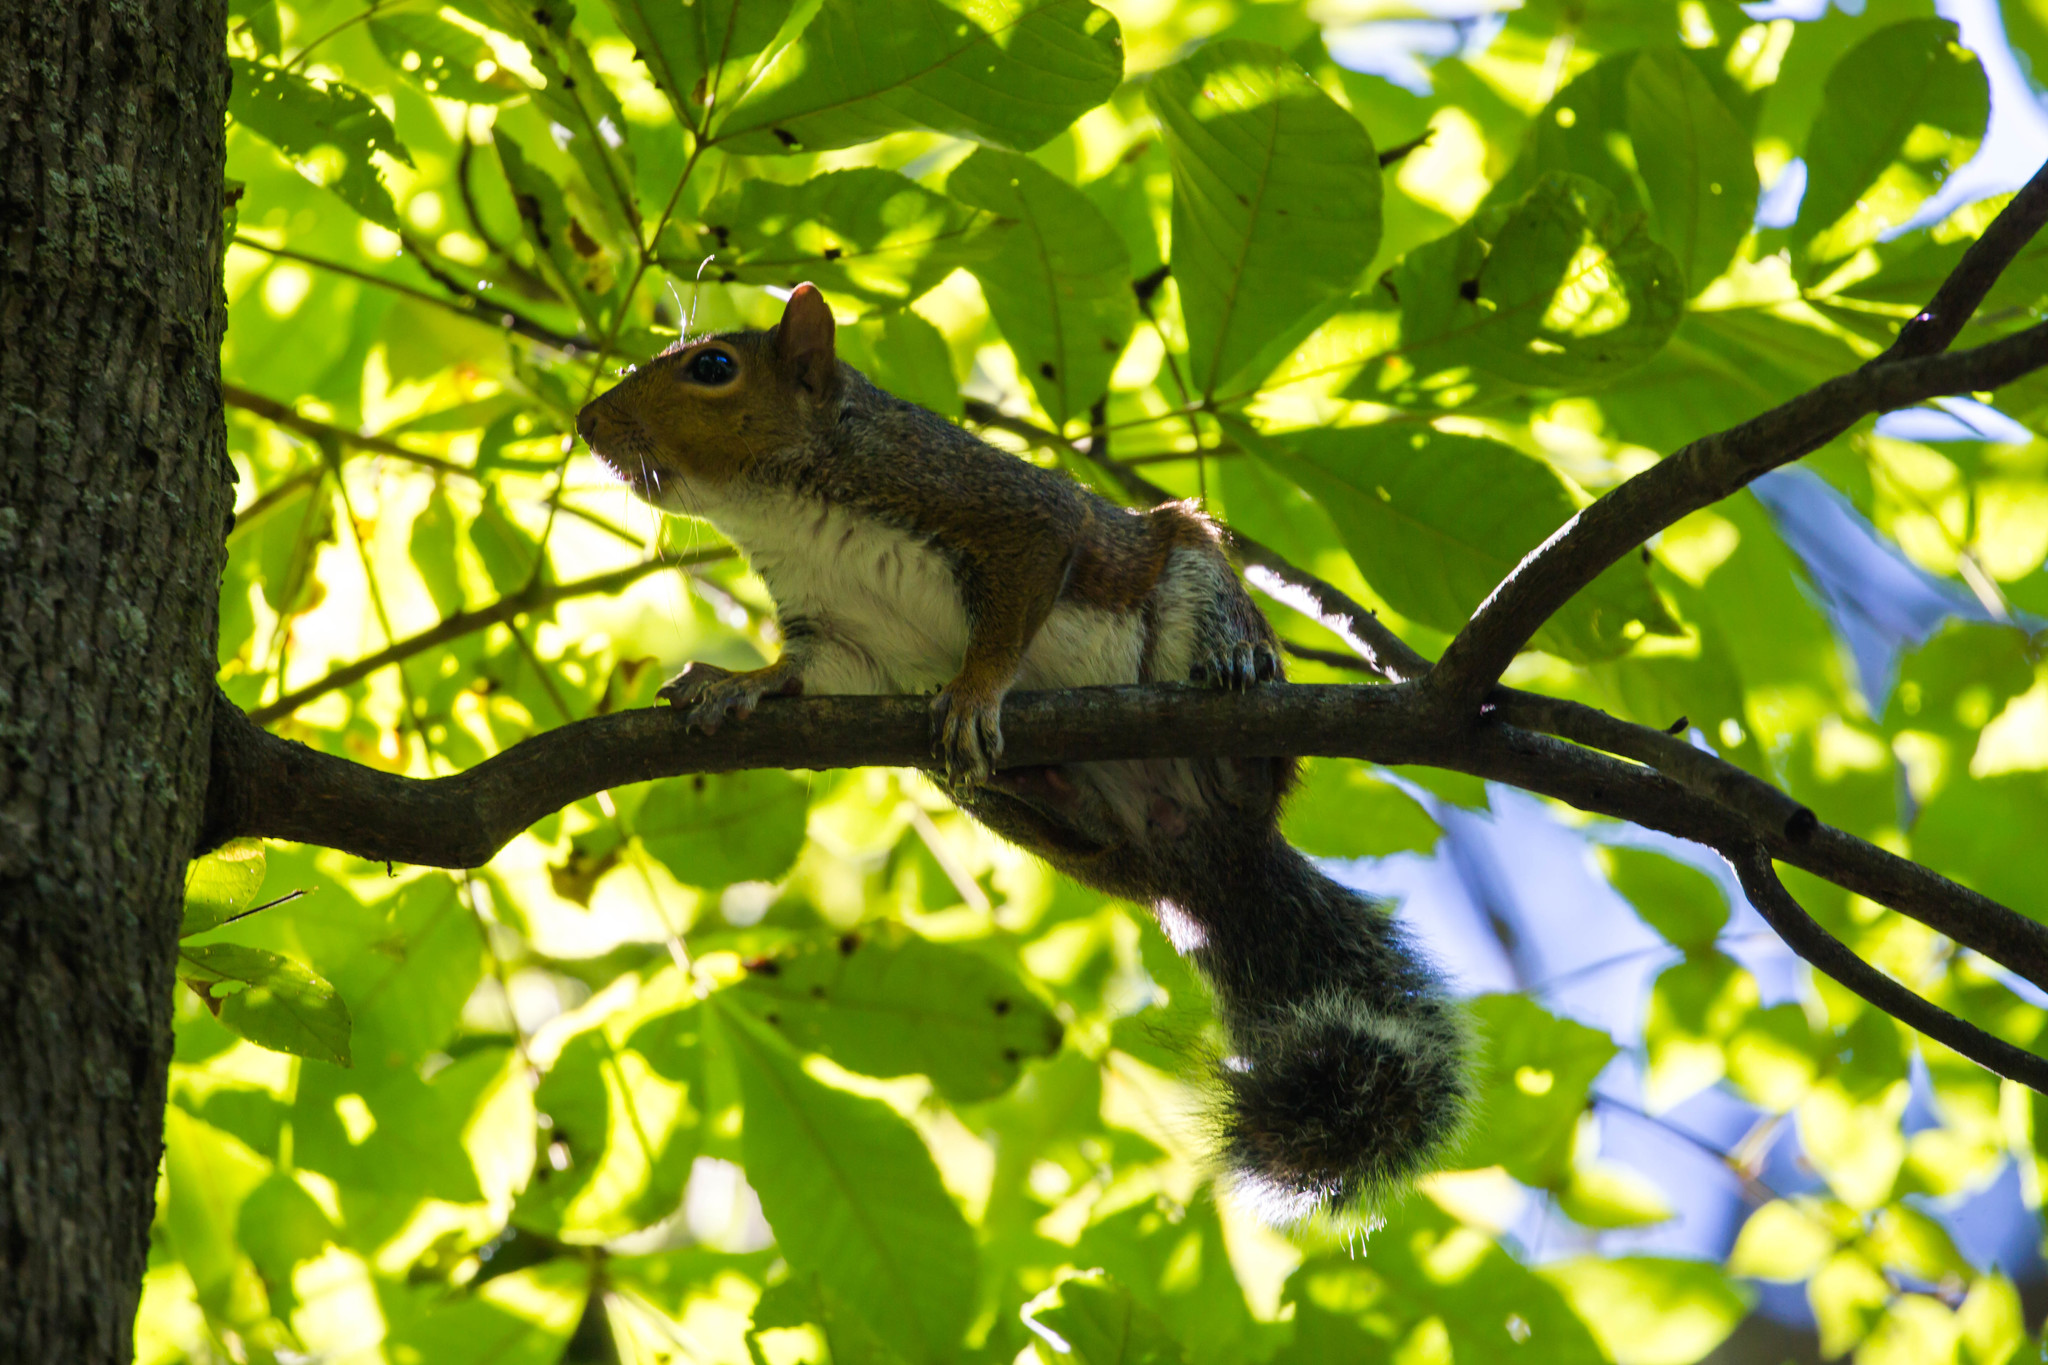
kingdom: Animalia
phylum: Chordata
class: Mammalia
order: Rodentia
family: Sciuridae
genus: Sciurus
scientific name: Sciurus carolinensis
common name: Eastern gray squirrel
